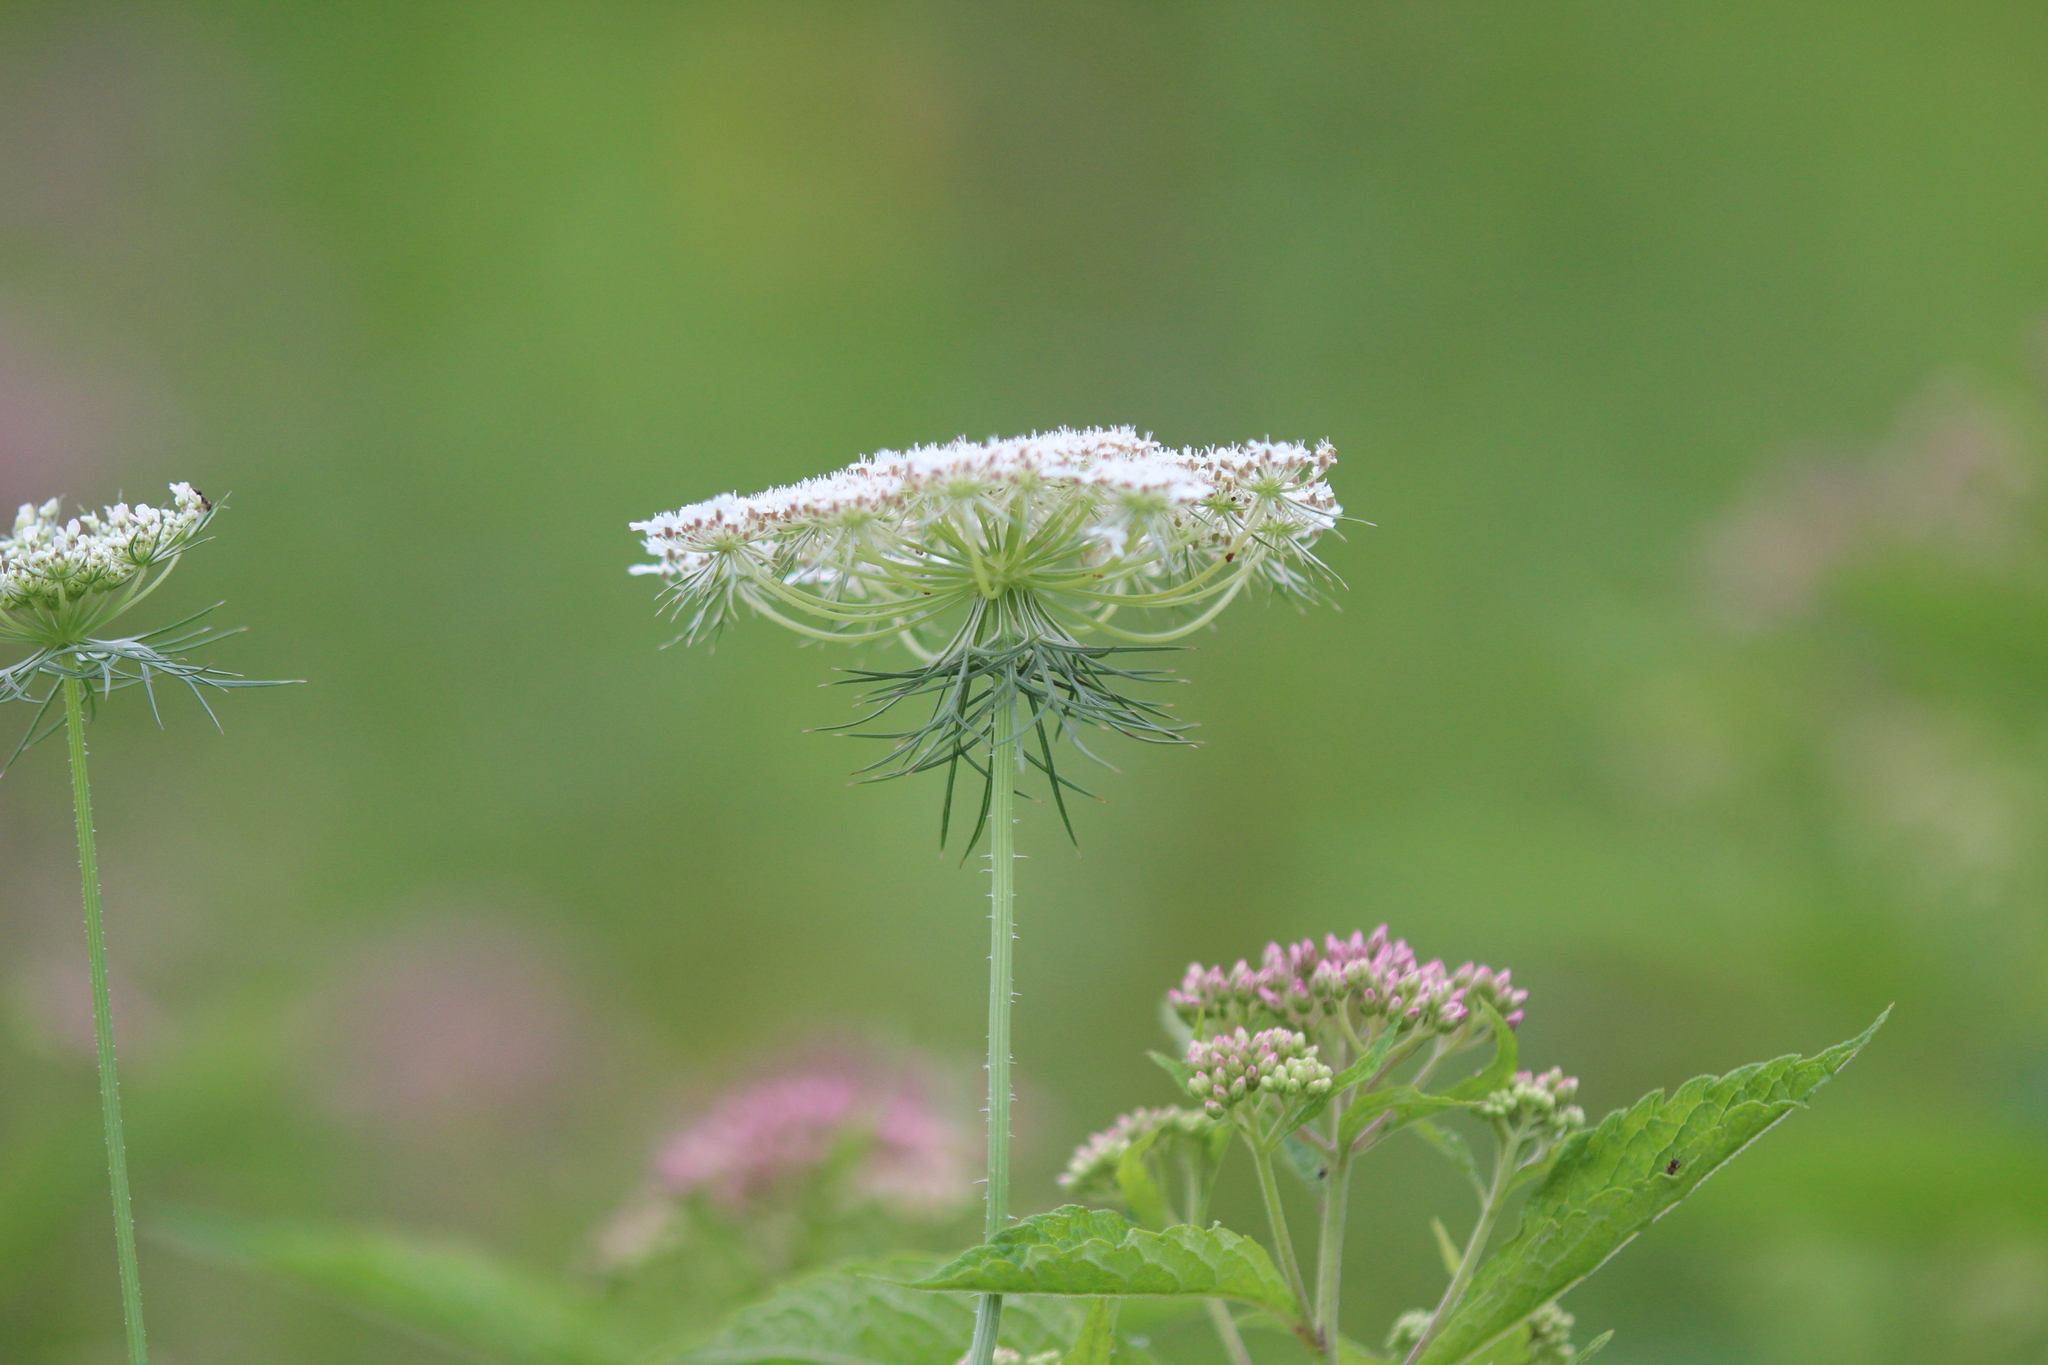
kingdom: Plantae
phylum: Tracheophyta
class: Magnoliopsida
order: Apiales
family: Apiaceae
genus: Daucus
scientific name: Daucus carota
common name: Wild carrot
